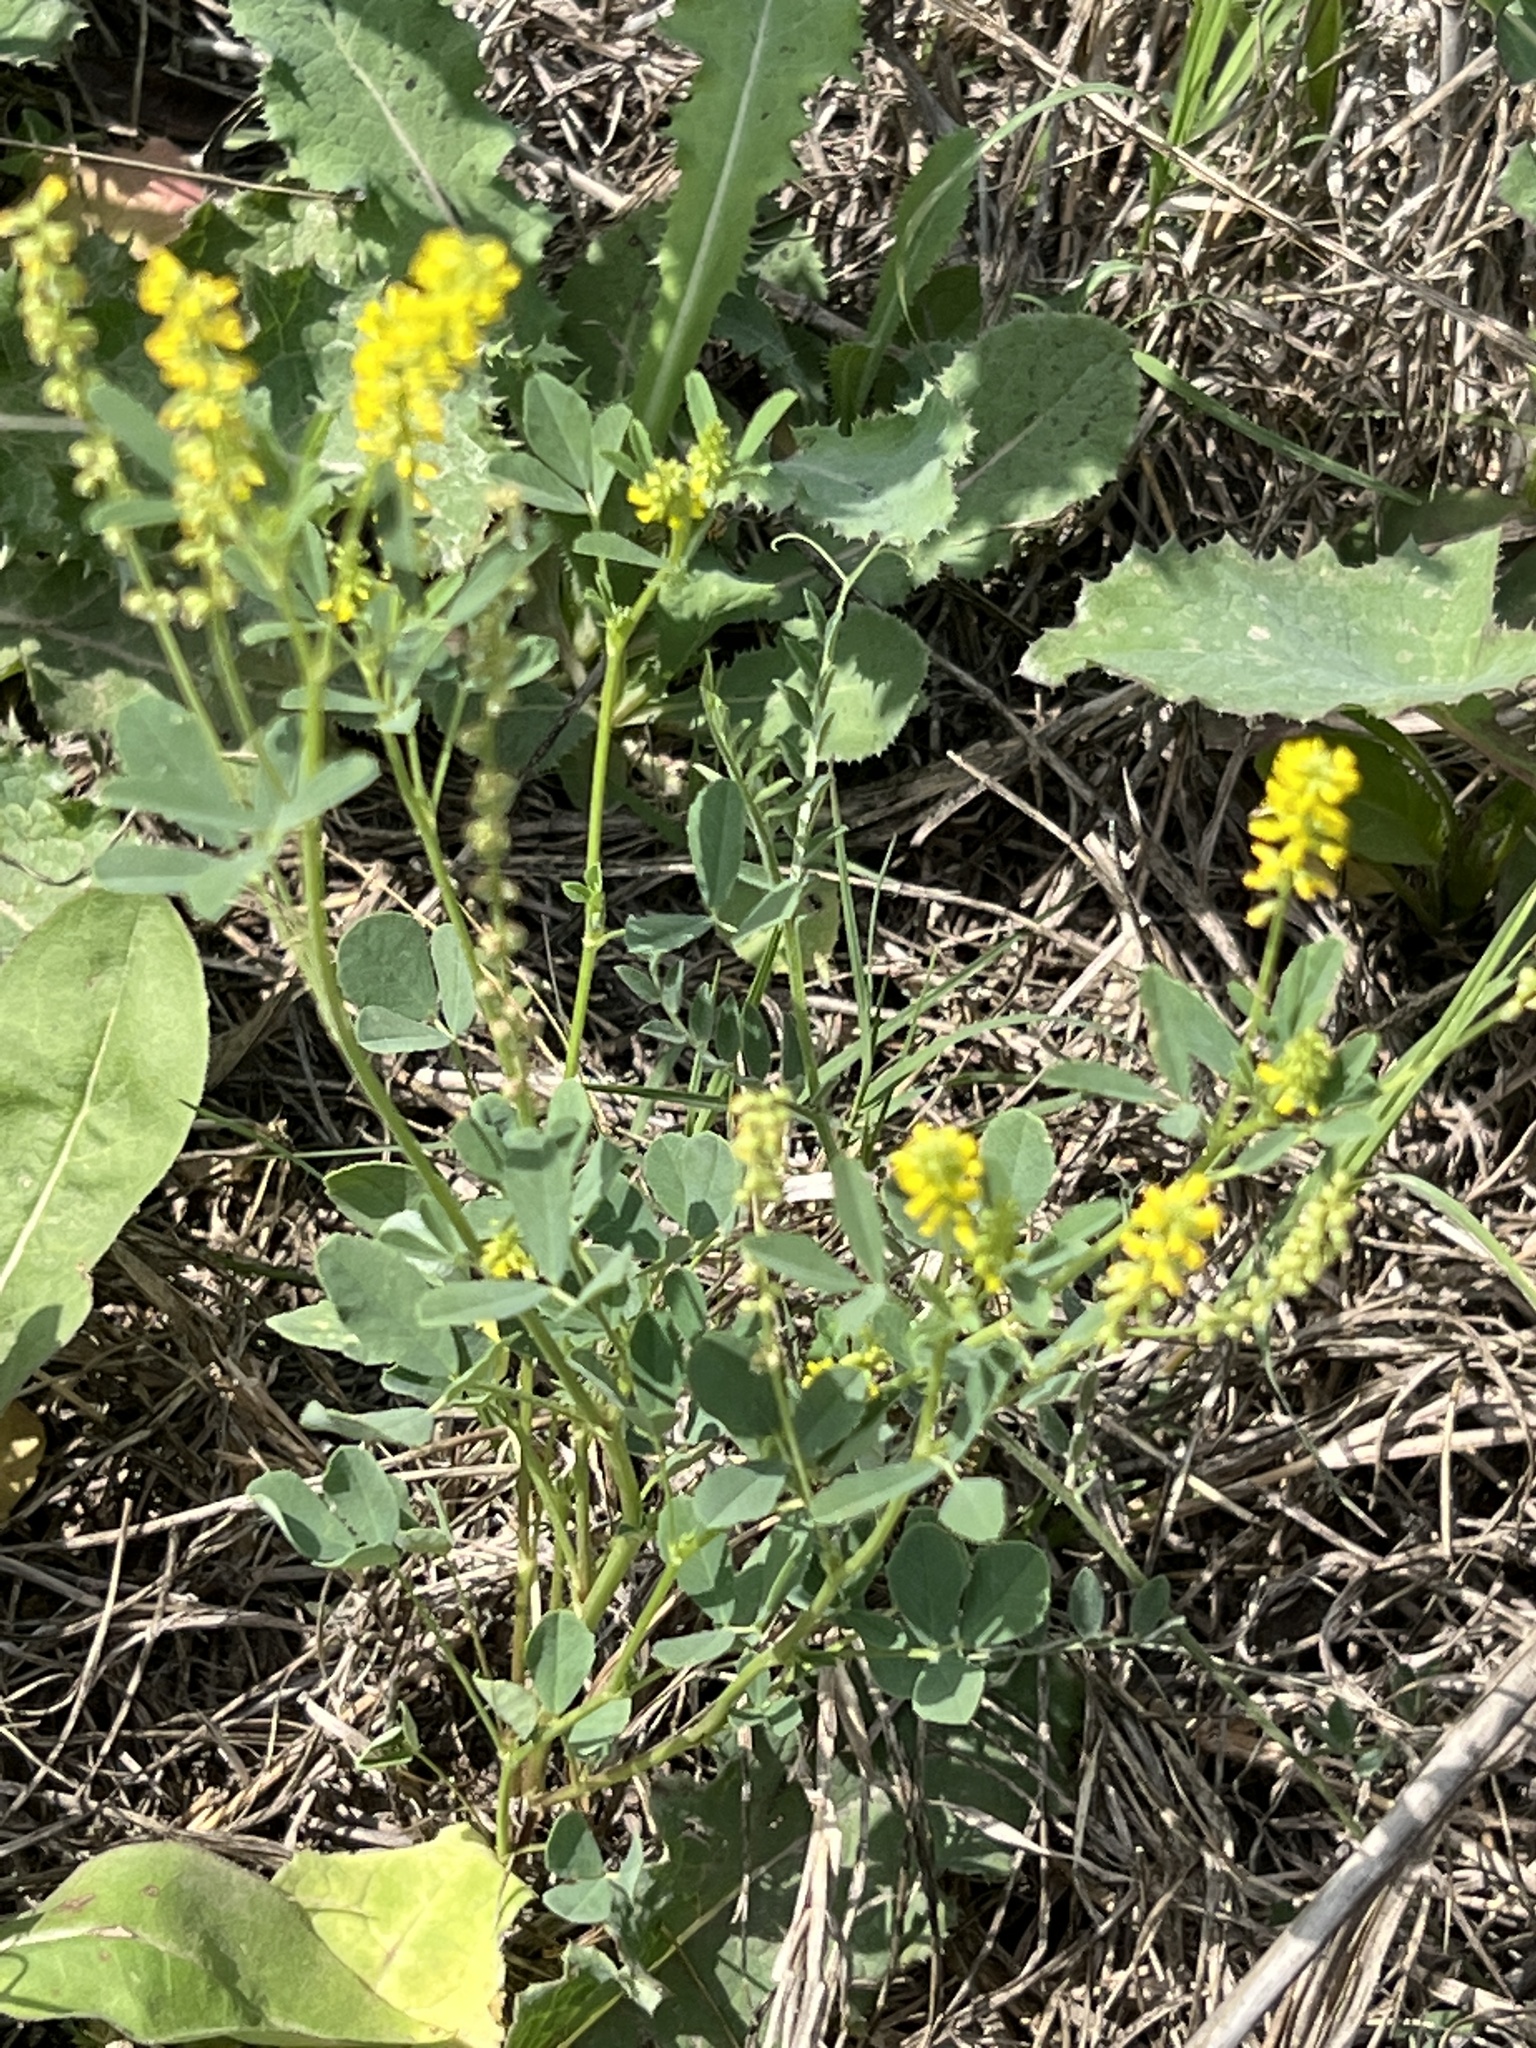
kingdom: Plantae
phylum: Tracheophyta
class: Magnoliopsida
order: Fabales
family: Fabaceae
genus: Melilotus
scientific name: Melilotus indicus
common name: Small melilot
